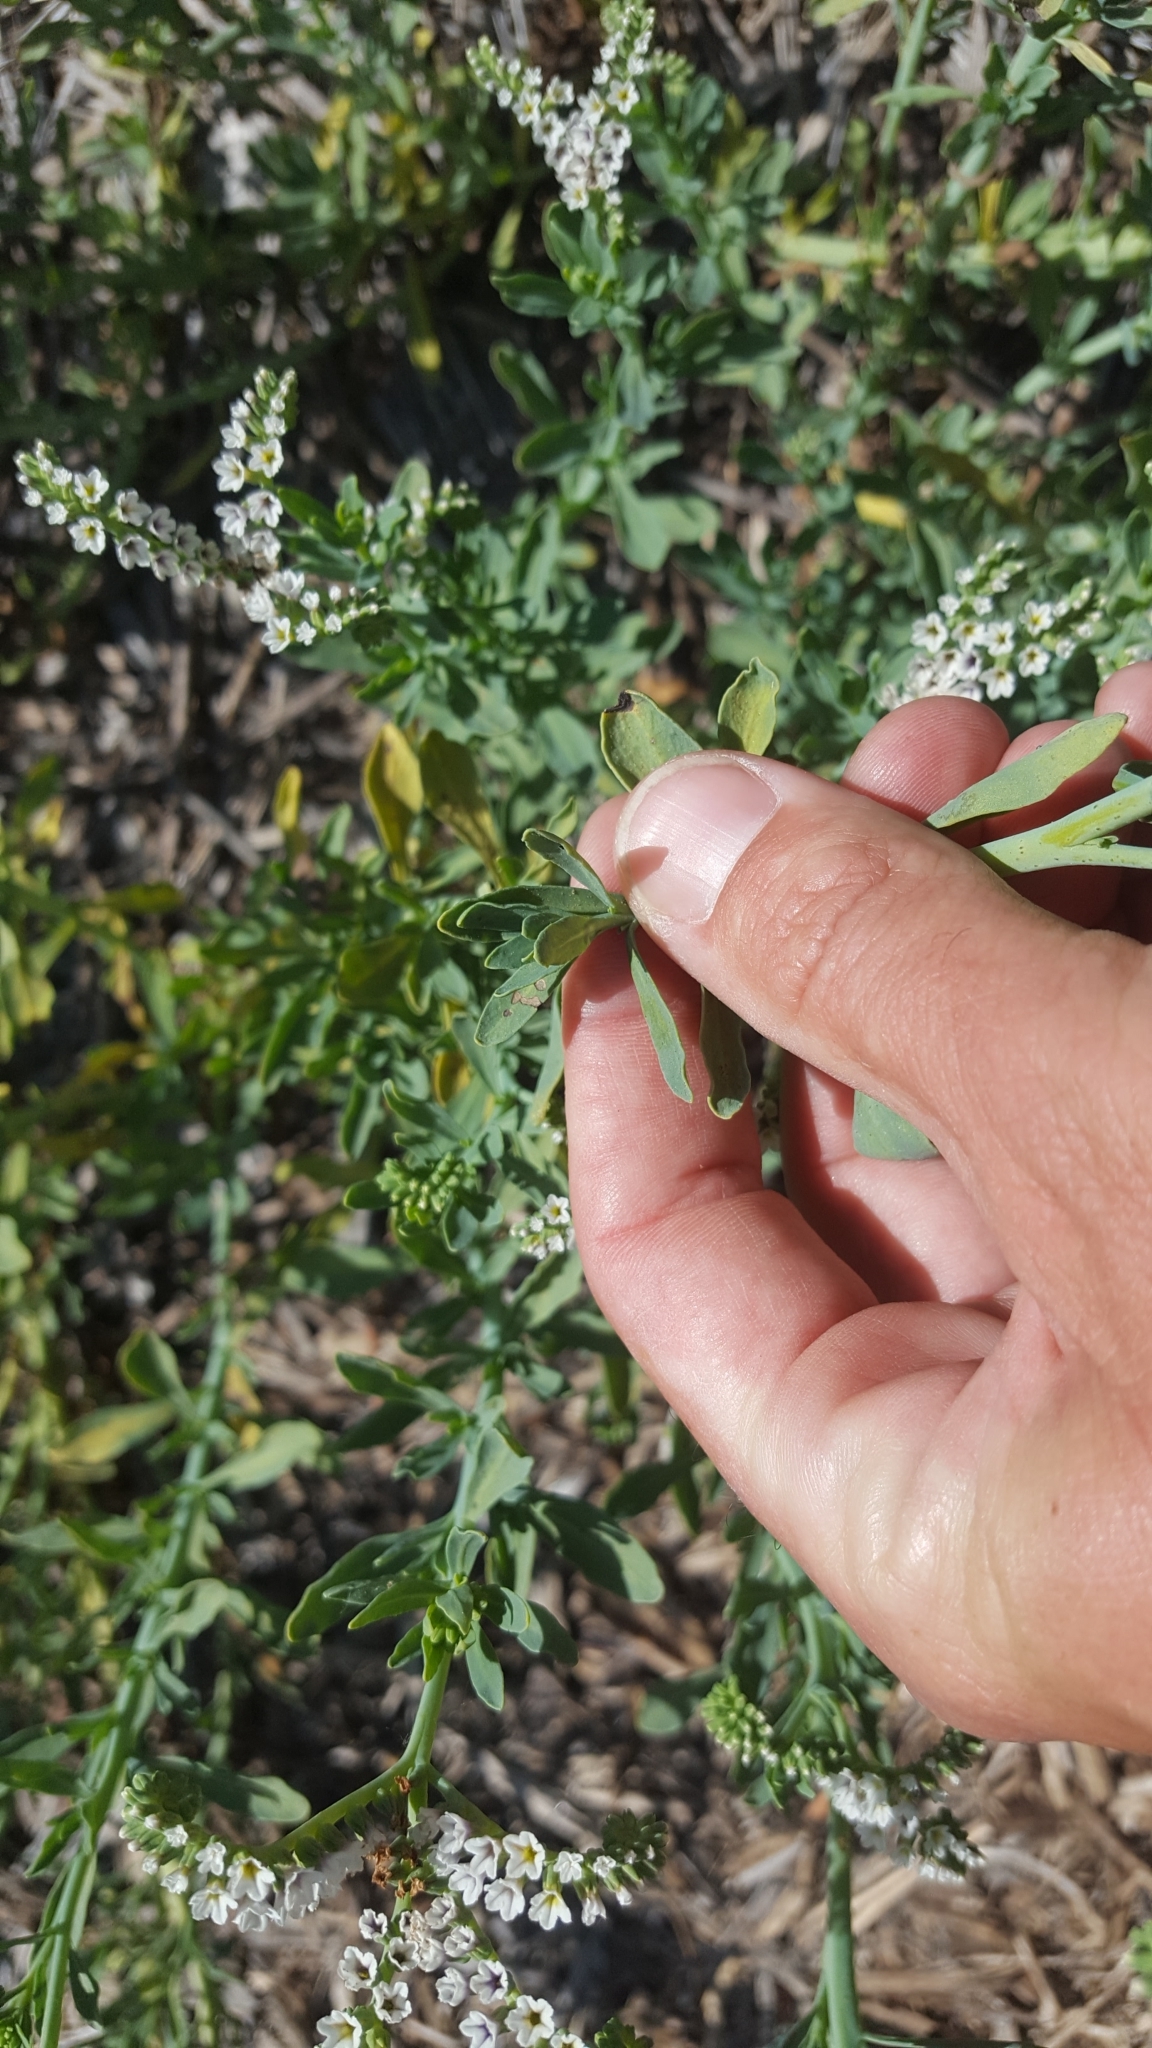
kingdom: Plantae
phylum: Tracheophyta
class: Magnoliopsida
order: Boraginales
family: Heliotropiaceae
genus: Heliotropium
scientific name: Heliotropium curassavicum
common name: Seaside heliotrope
